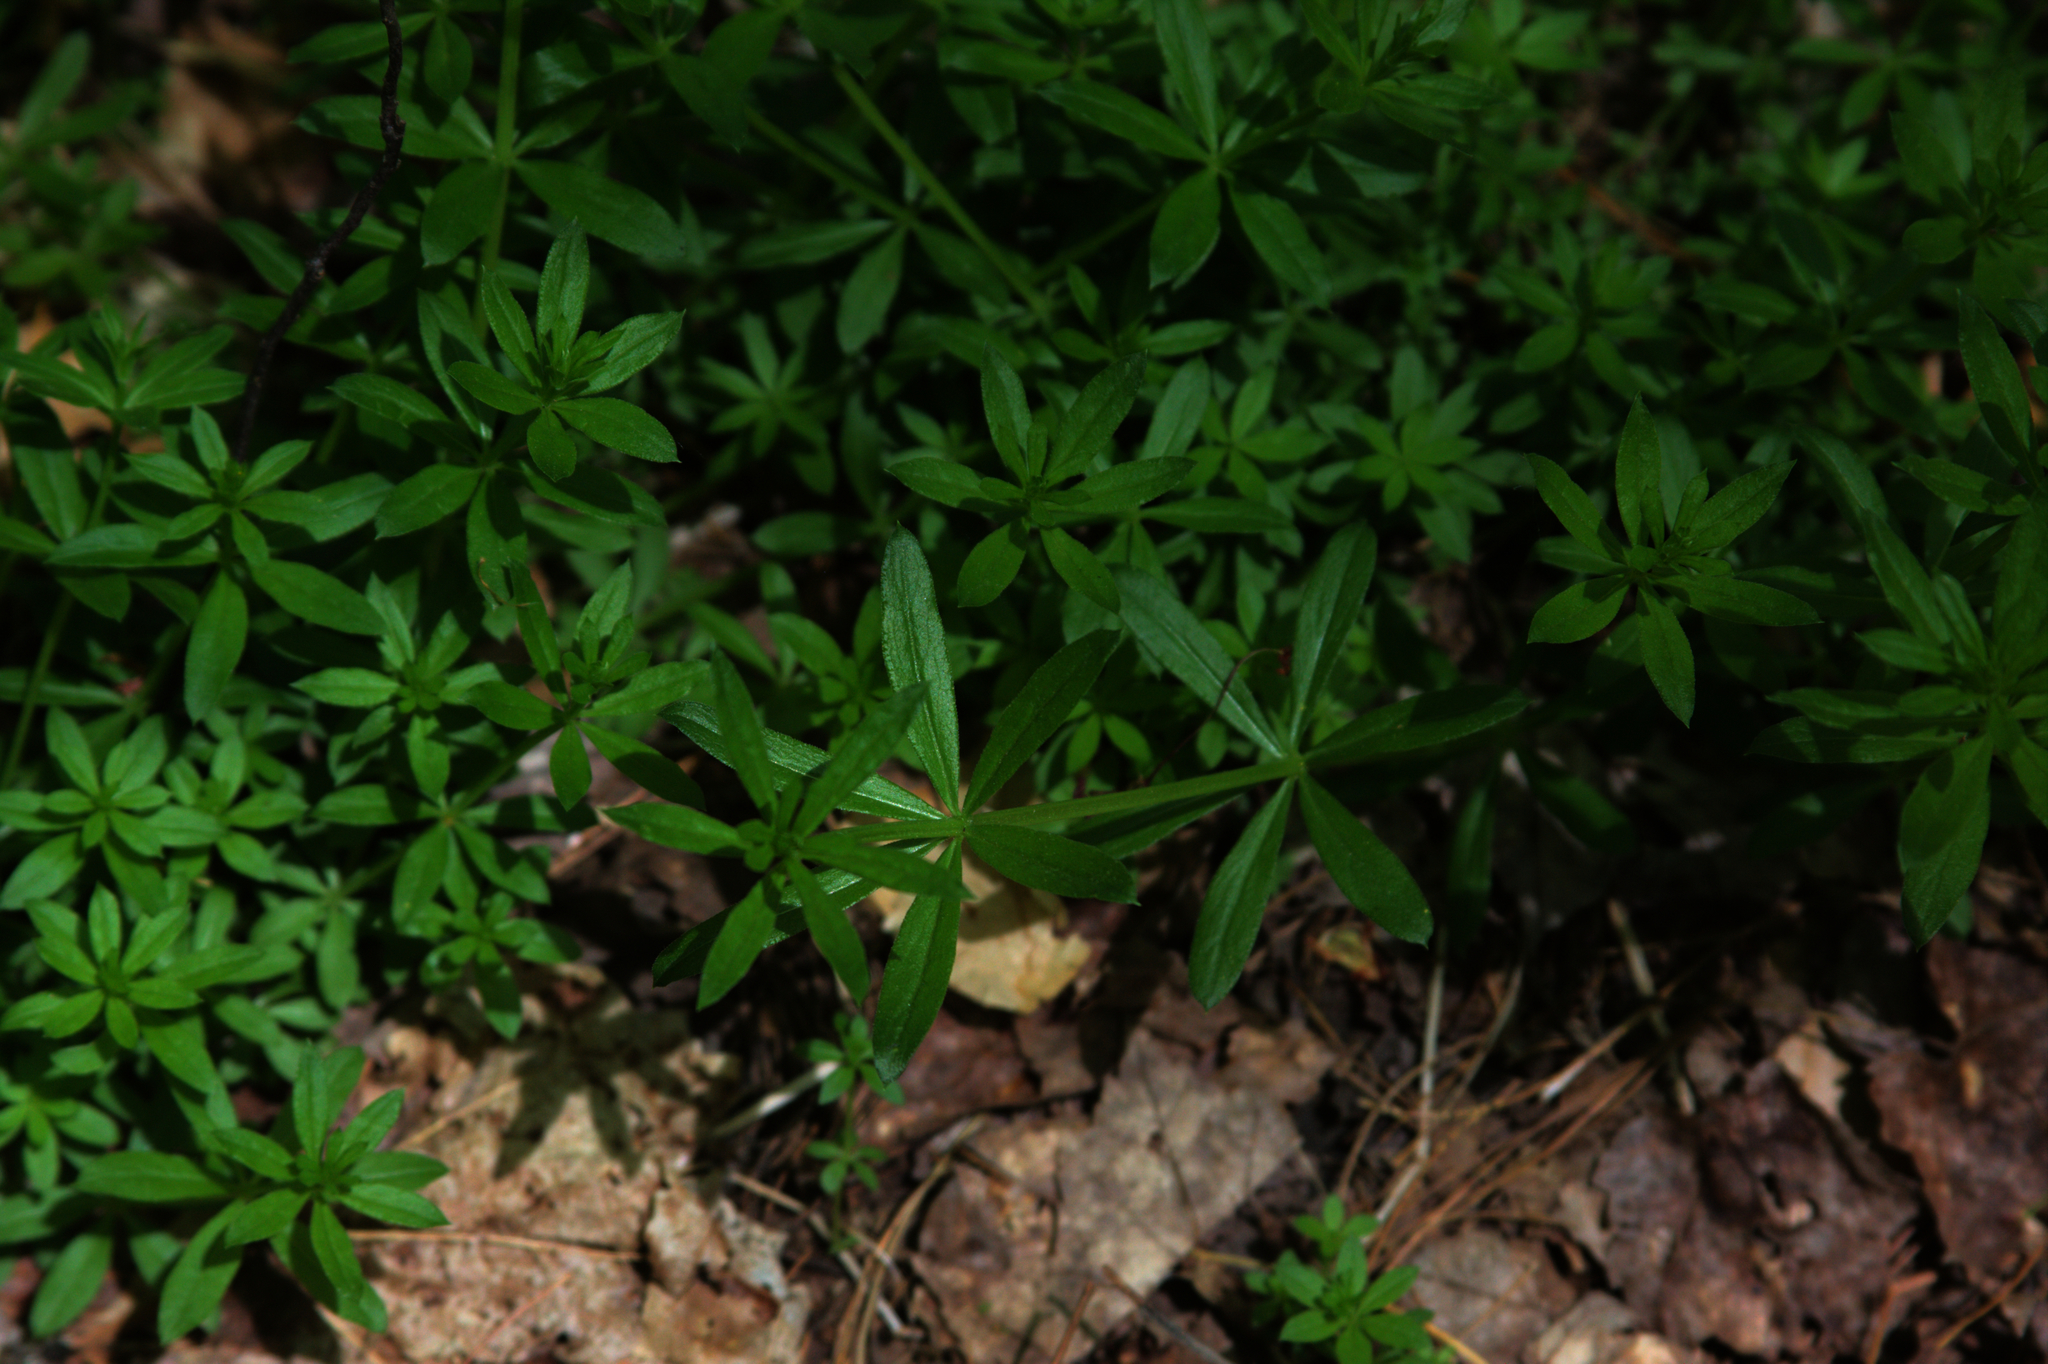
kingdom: Plantae
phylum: Tracheophyta
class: Magnoliopsida
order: Gentianales
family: Rubiaceae
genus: Galium
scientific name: Galium triflorum
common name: Fragrant bedstraw
